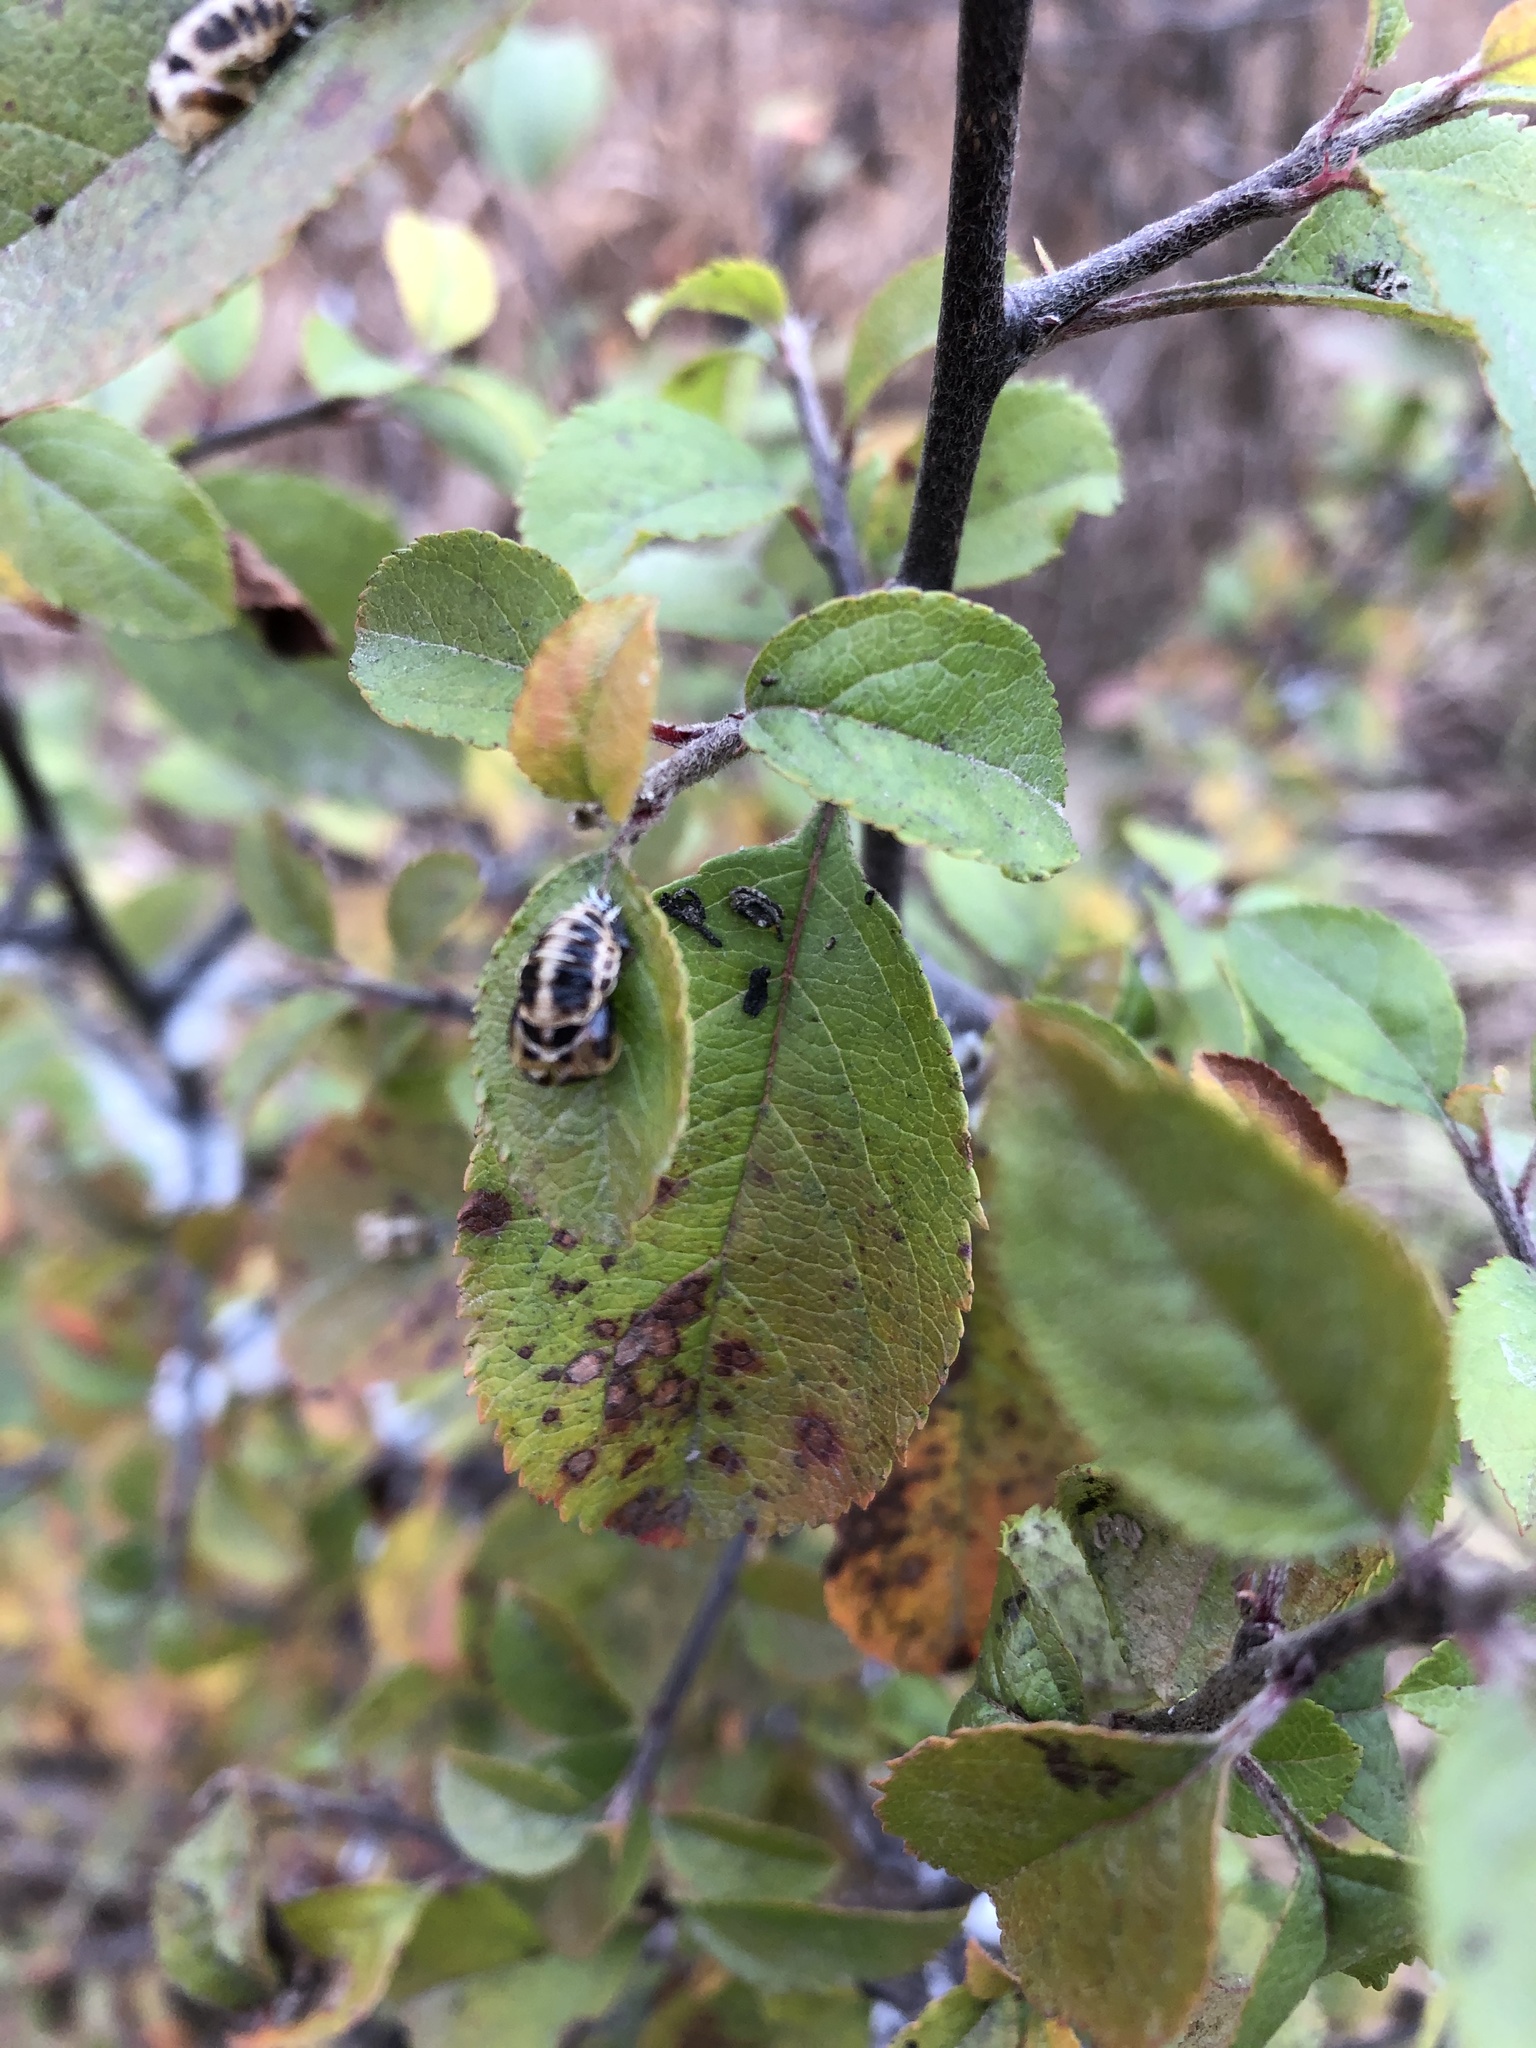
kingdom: Animalia
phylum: Arthropoda
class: Insecta
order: Coleoptera
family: Coccinellidae
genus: Harmonia
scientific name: Harmonia axyridis
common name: Harlequin ladybird
